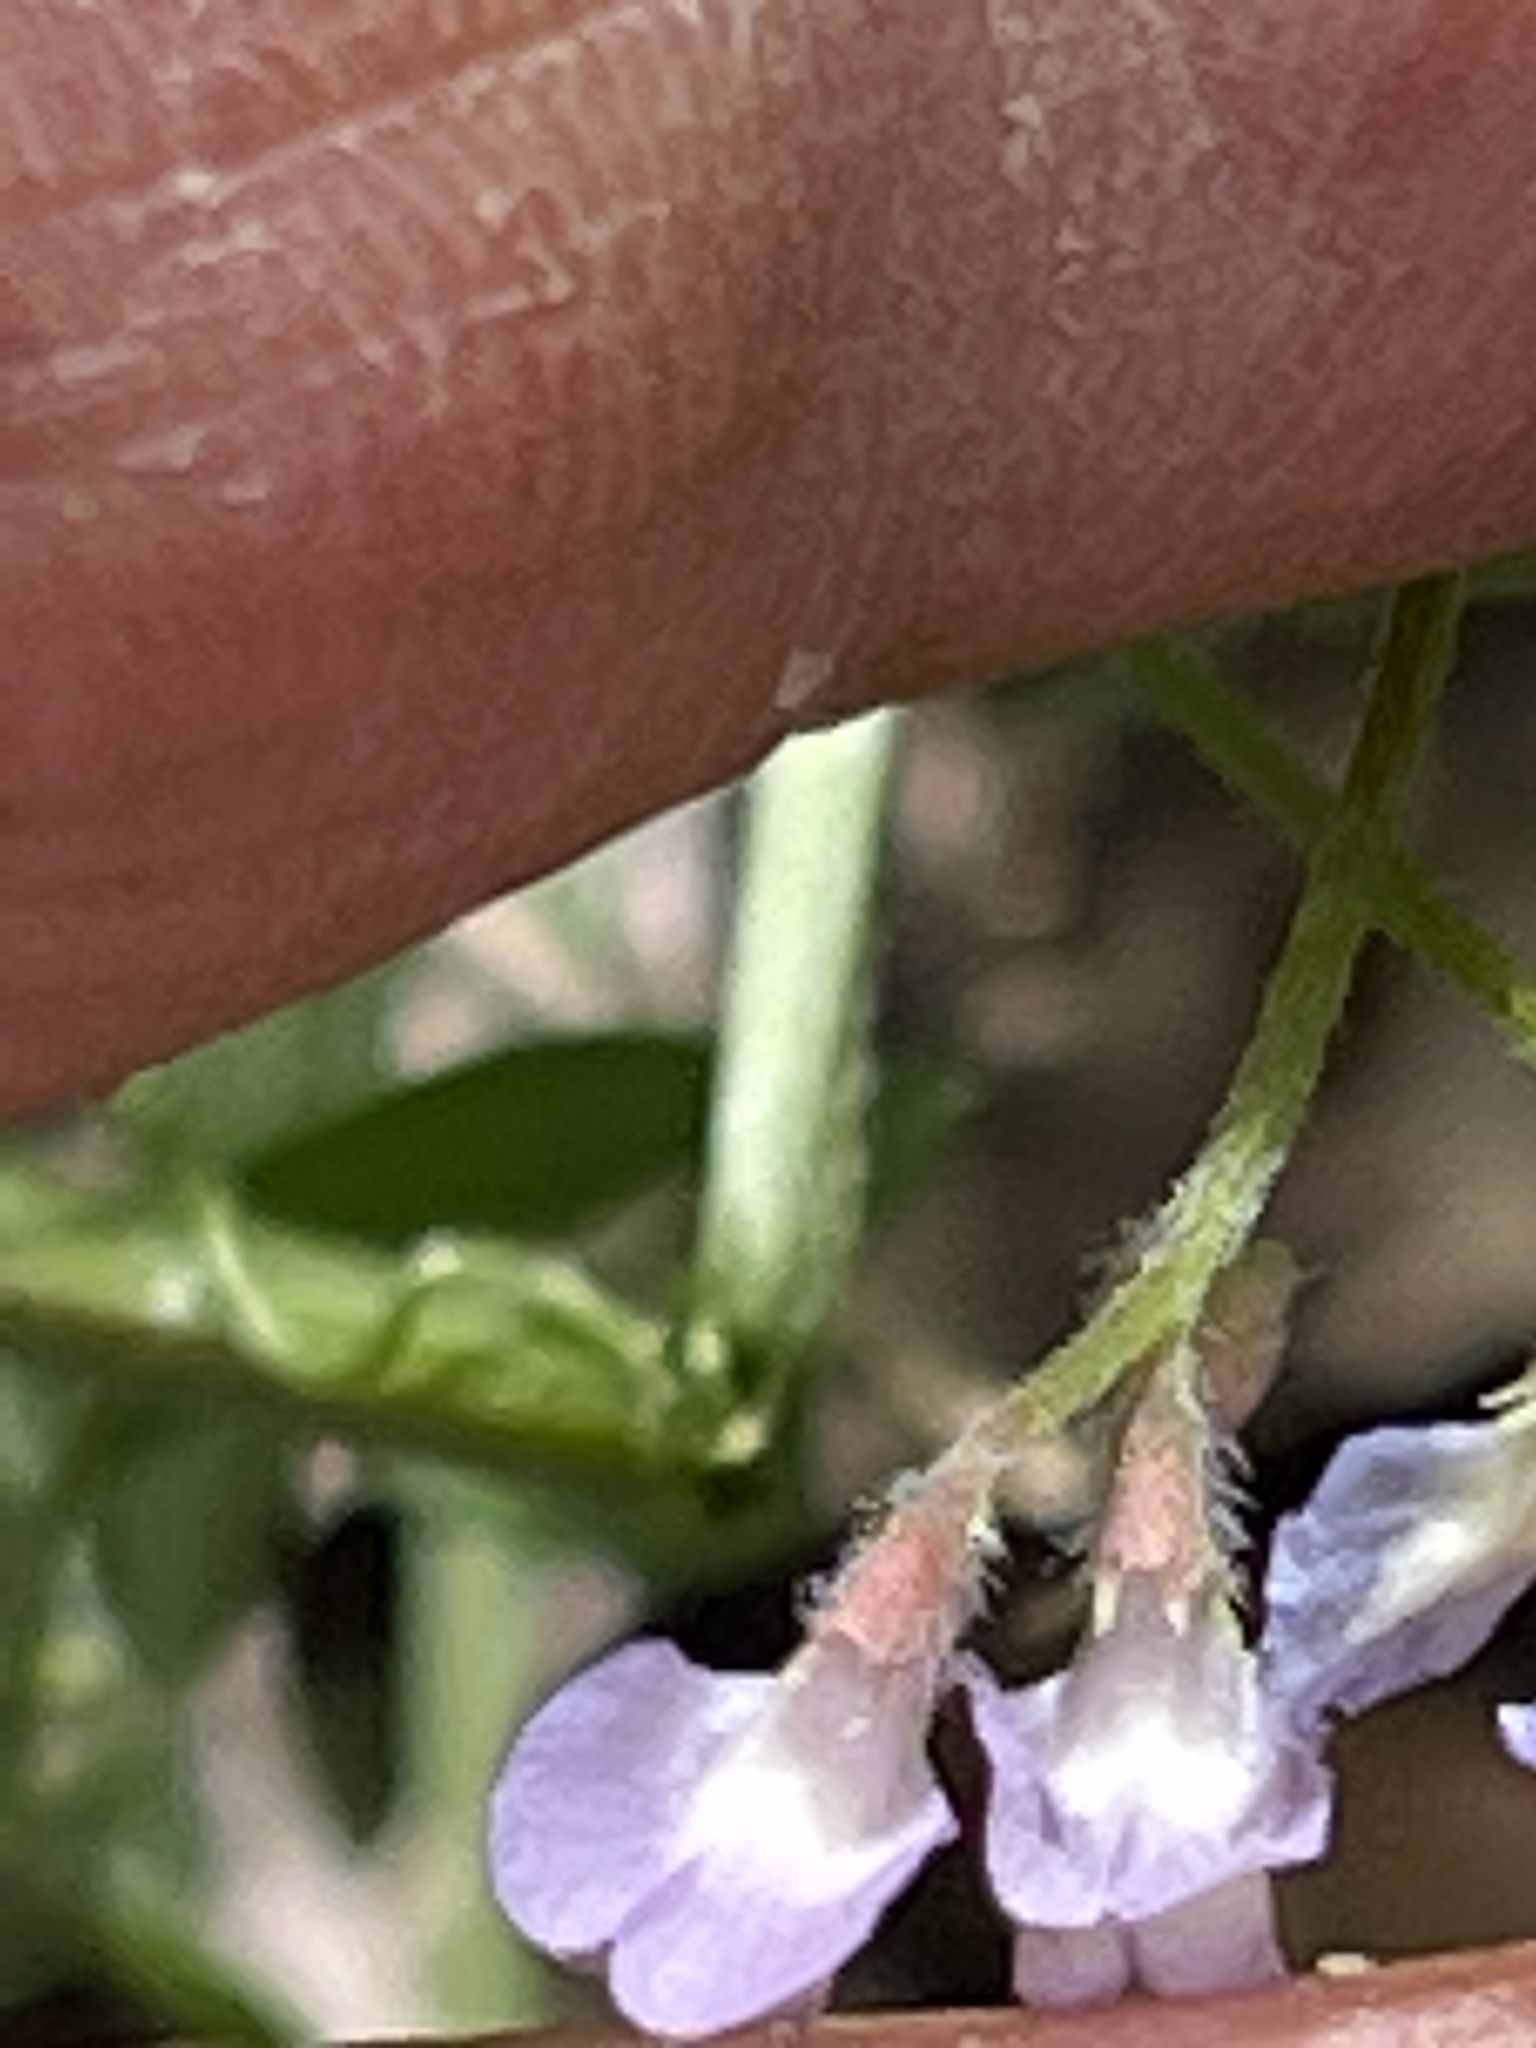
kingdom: Plantae
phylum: Tracheophyta
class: Magnoliopsida
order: Fabales
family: Fabaceae
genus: Vicia
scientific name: Vicia ludoviciana
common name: Louisiana vetch
